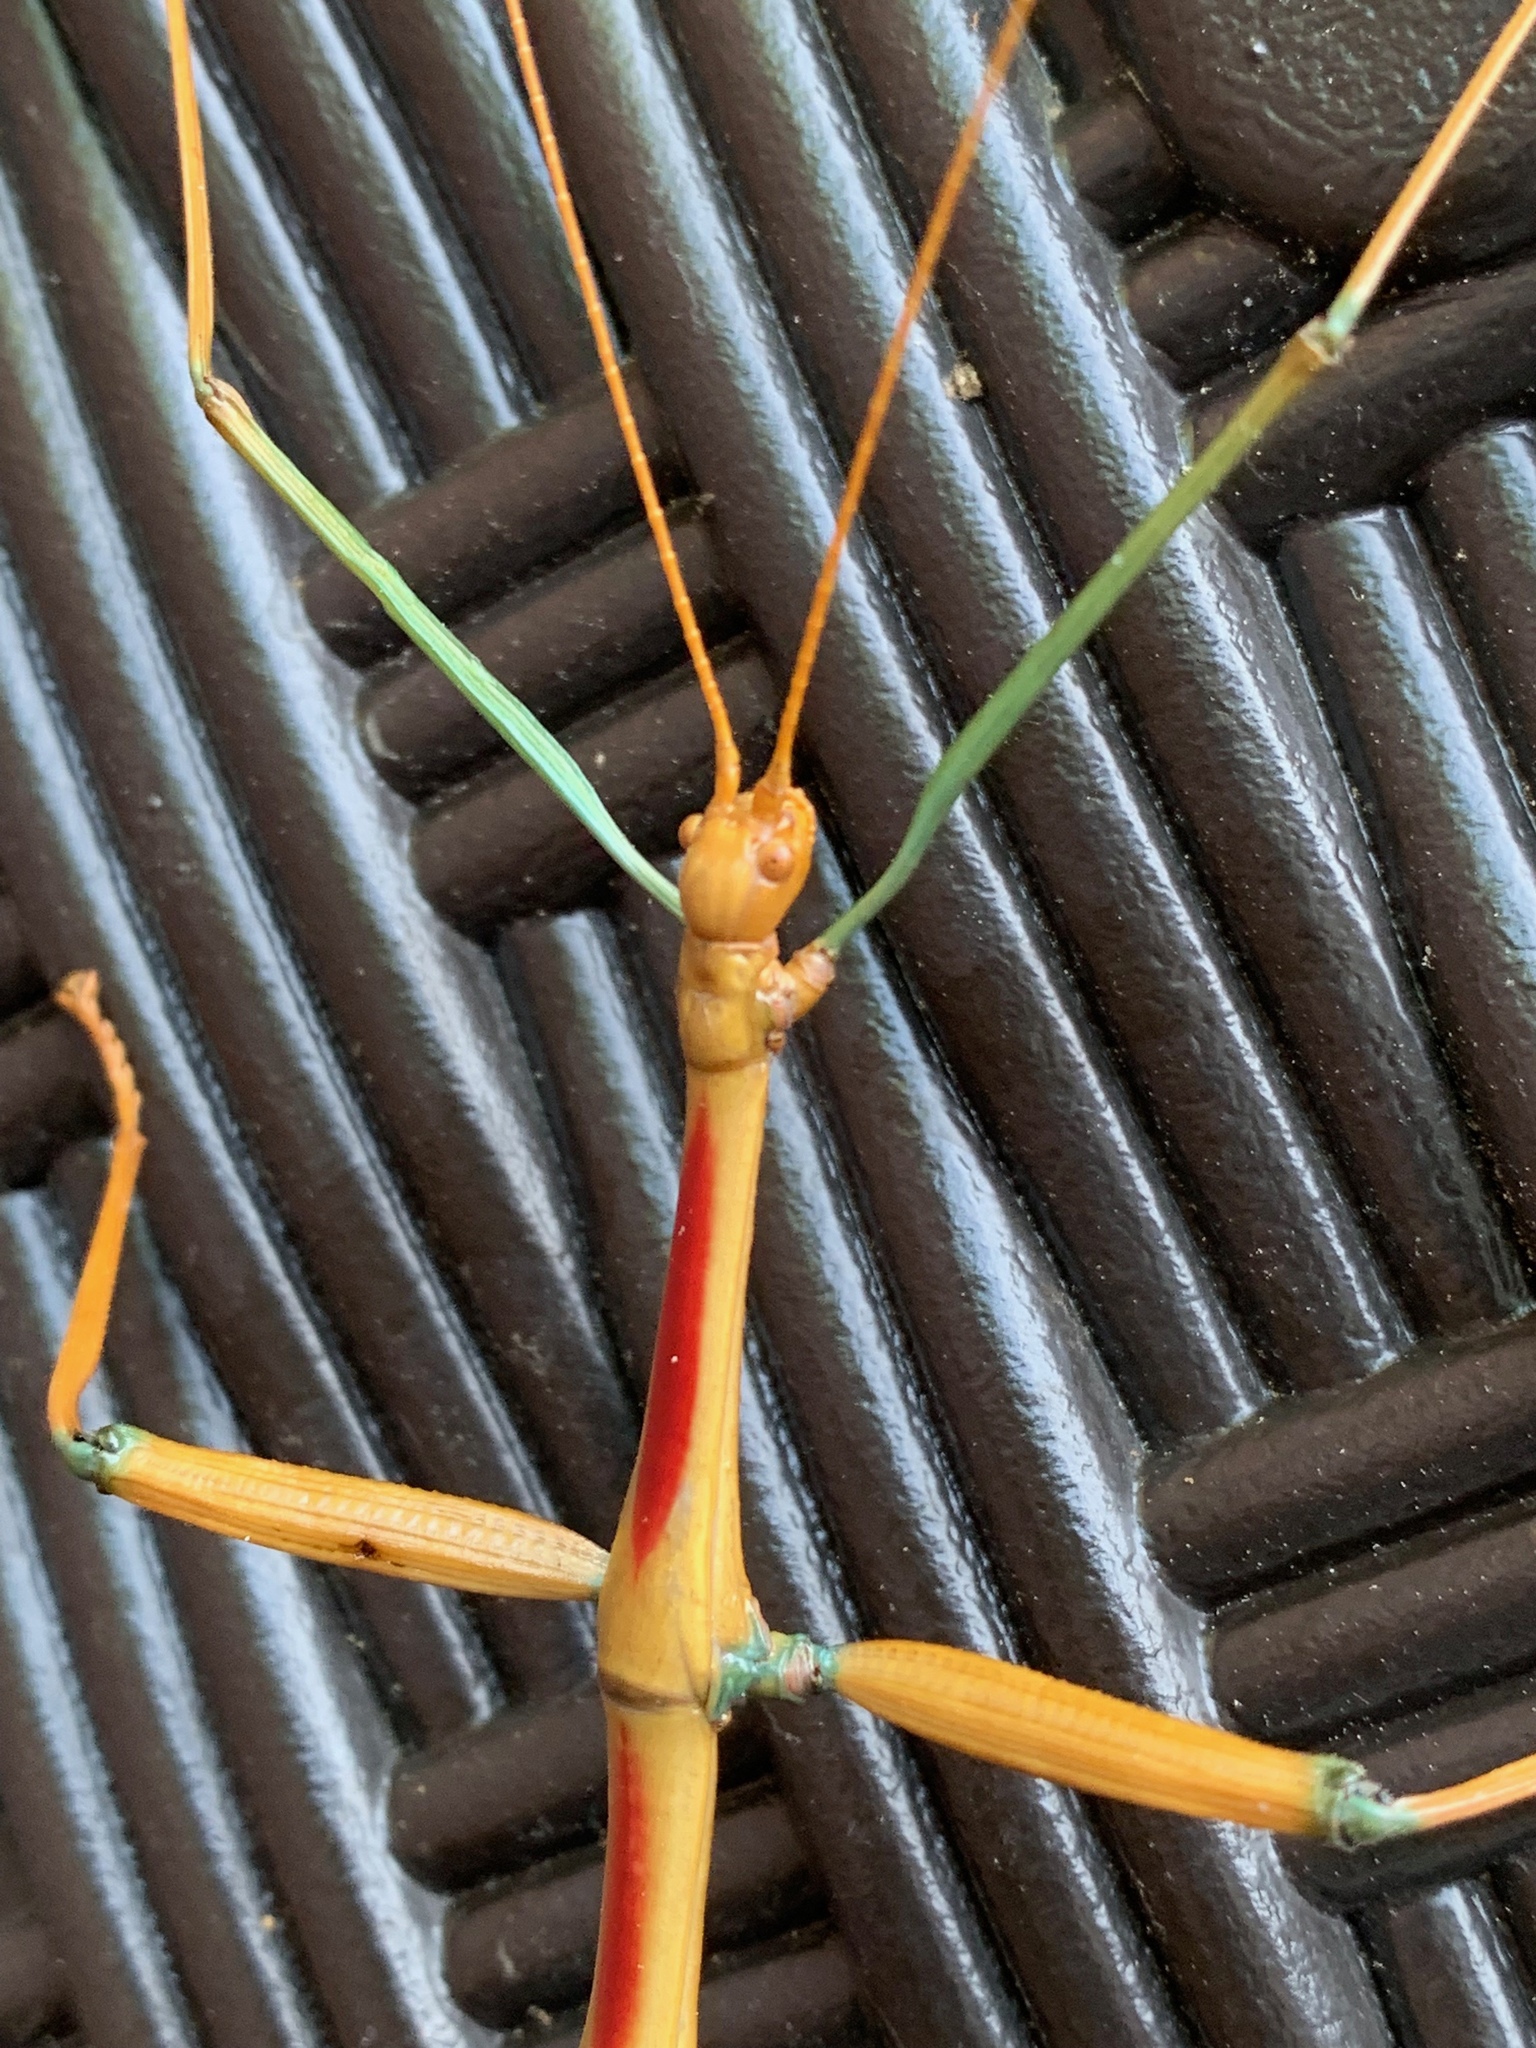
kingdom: Animalia
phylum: Arthropoda
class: Insecta
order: Phasmida
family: Diapheromeridae
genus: Megaphasma
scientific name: Megaphasma denticrus
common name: Giant walkingstick
